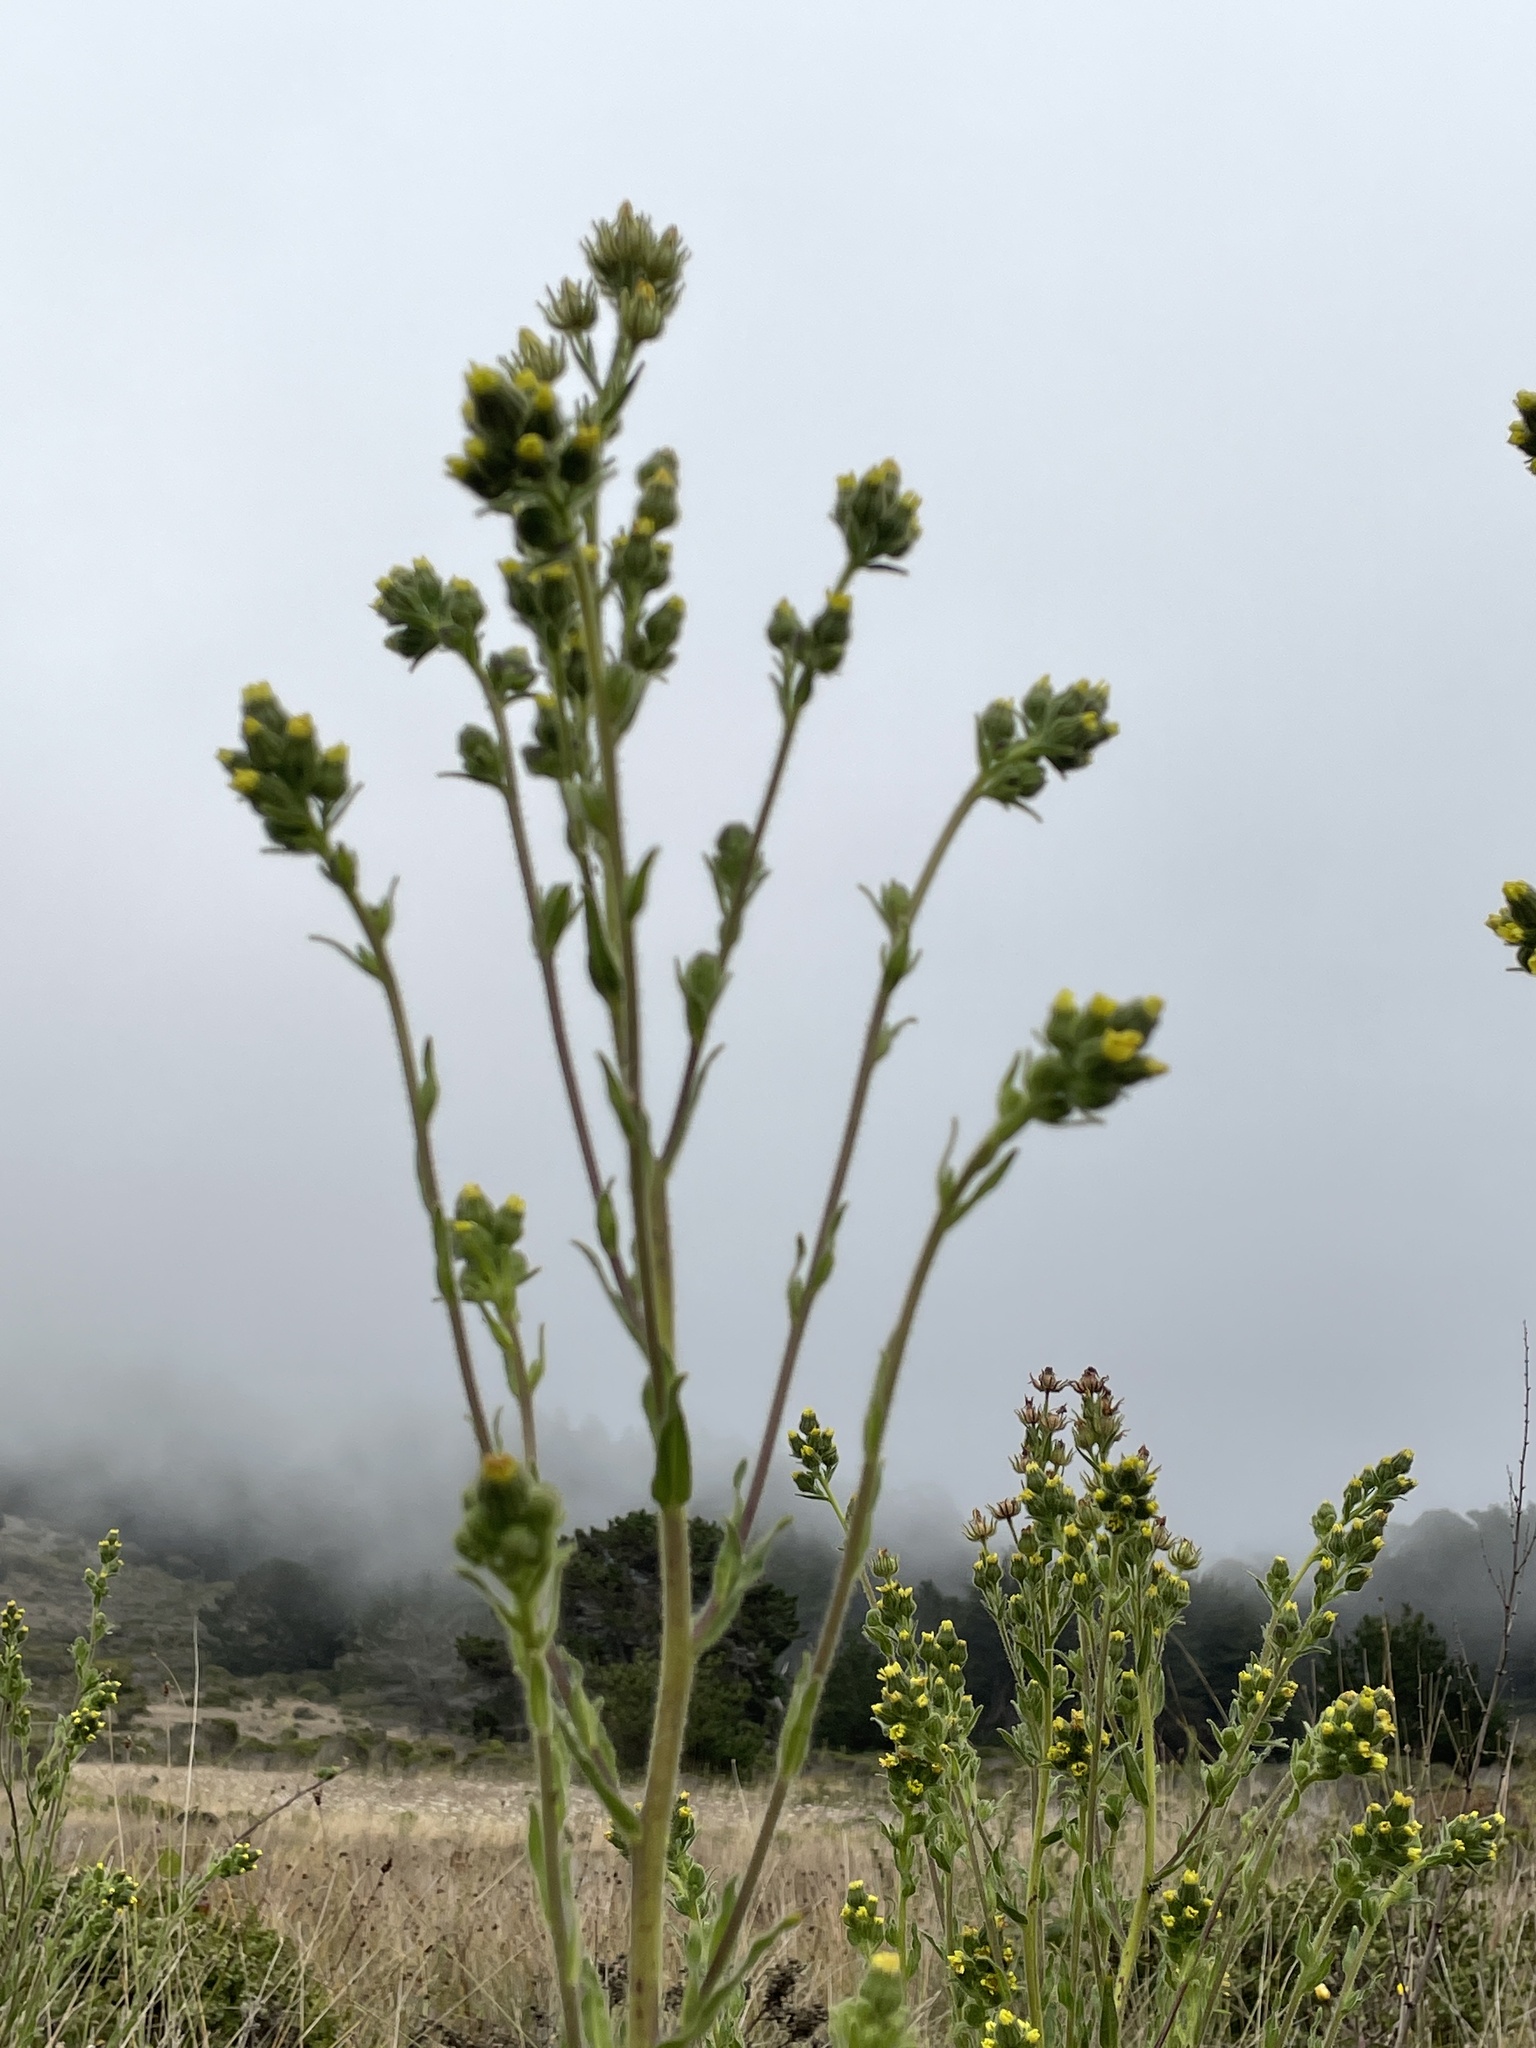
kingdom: Plantae
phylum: Tracheophyta
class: Magnoliopsida
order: Asterales
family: Asteraceae
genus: Madia
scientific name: Madia sativa
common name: Coast tarweed
